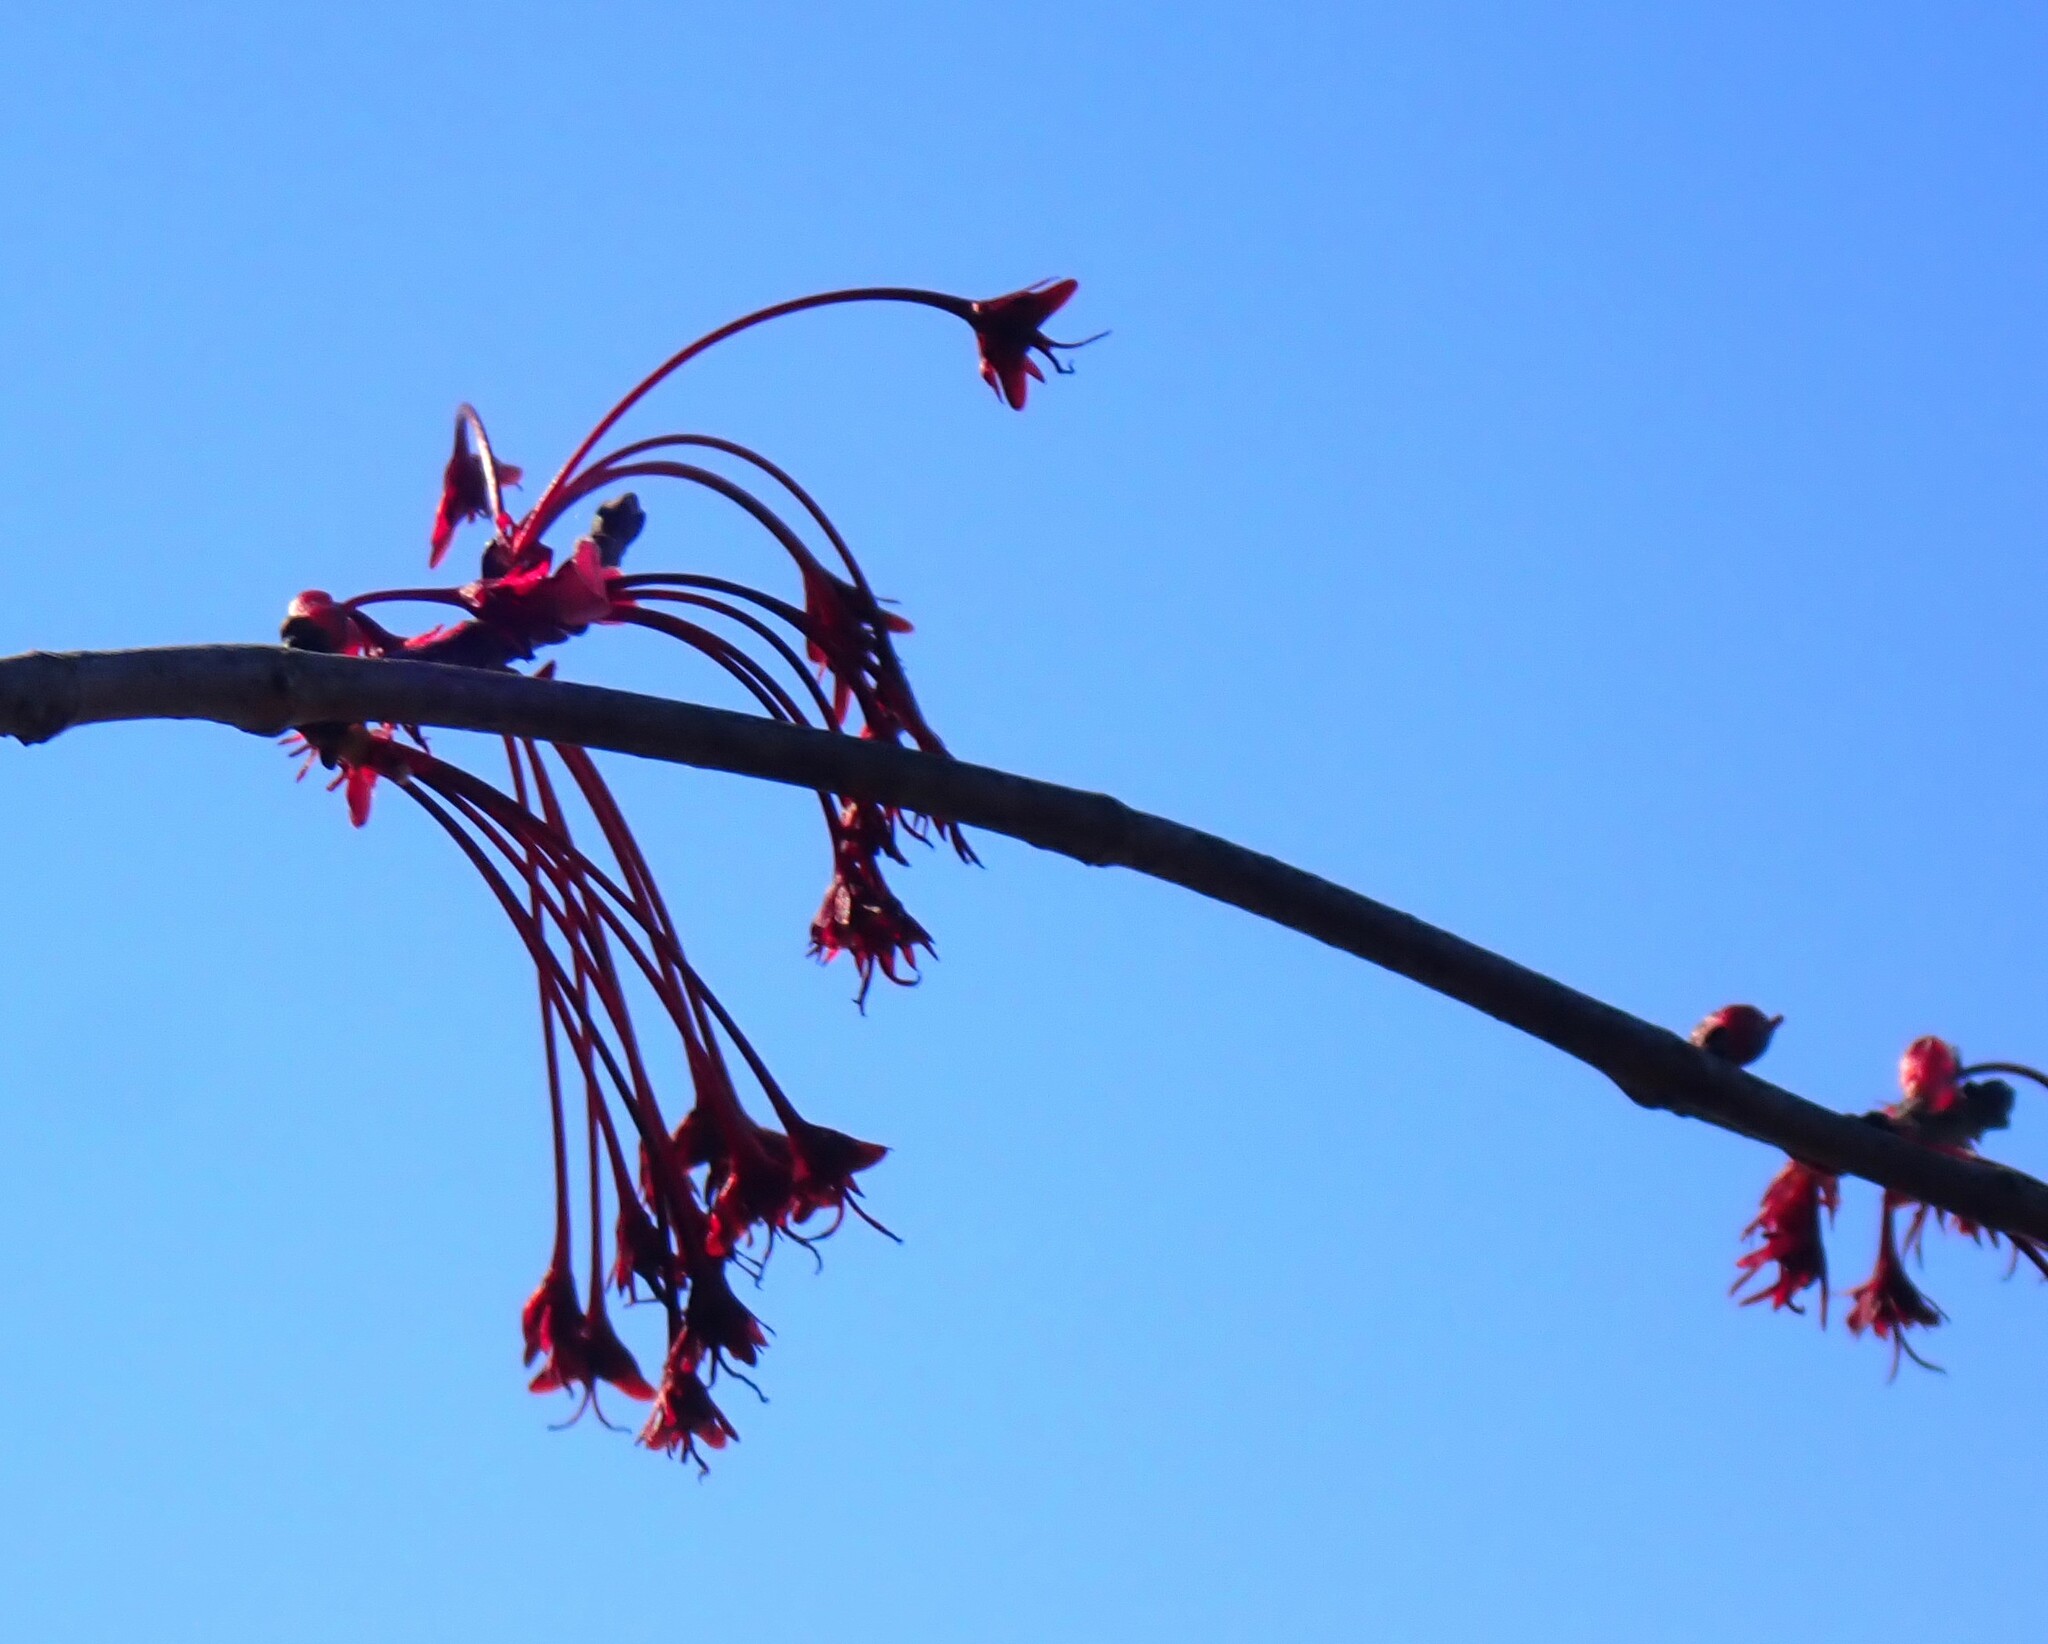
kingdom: Plantae
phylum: Tracheophyta
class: Magnoliopsida
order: Sapindales
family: Sapindaceae
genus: Acer
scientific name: Acer rubrum
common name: Red maple
